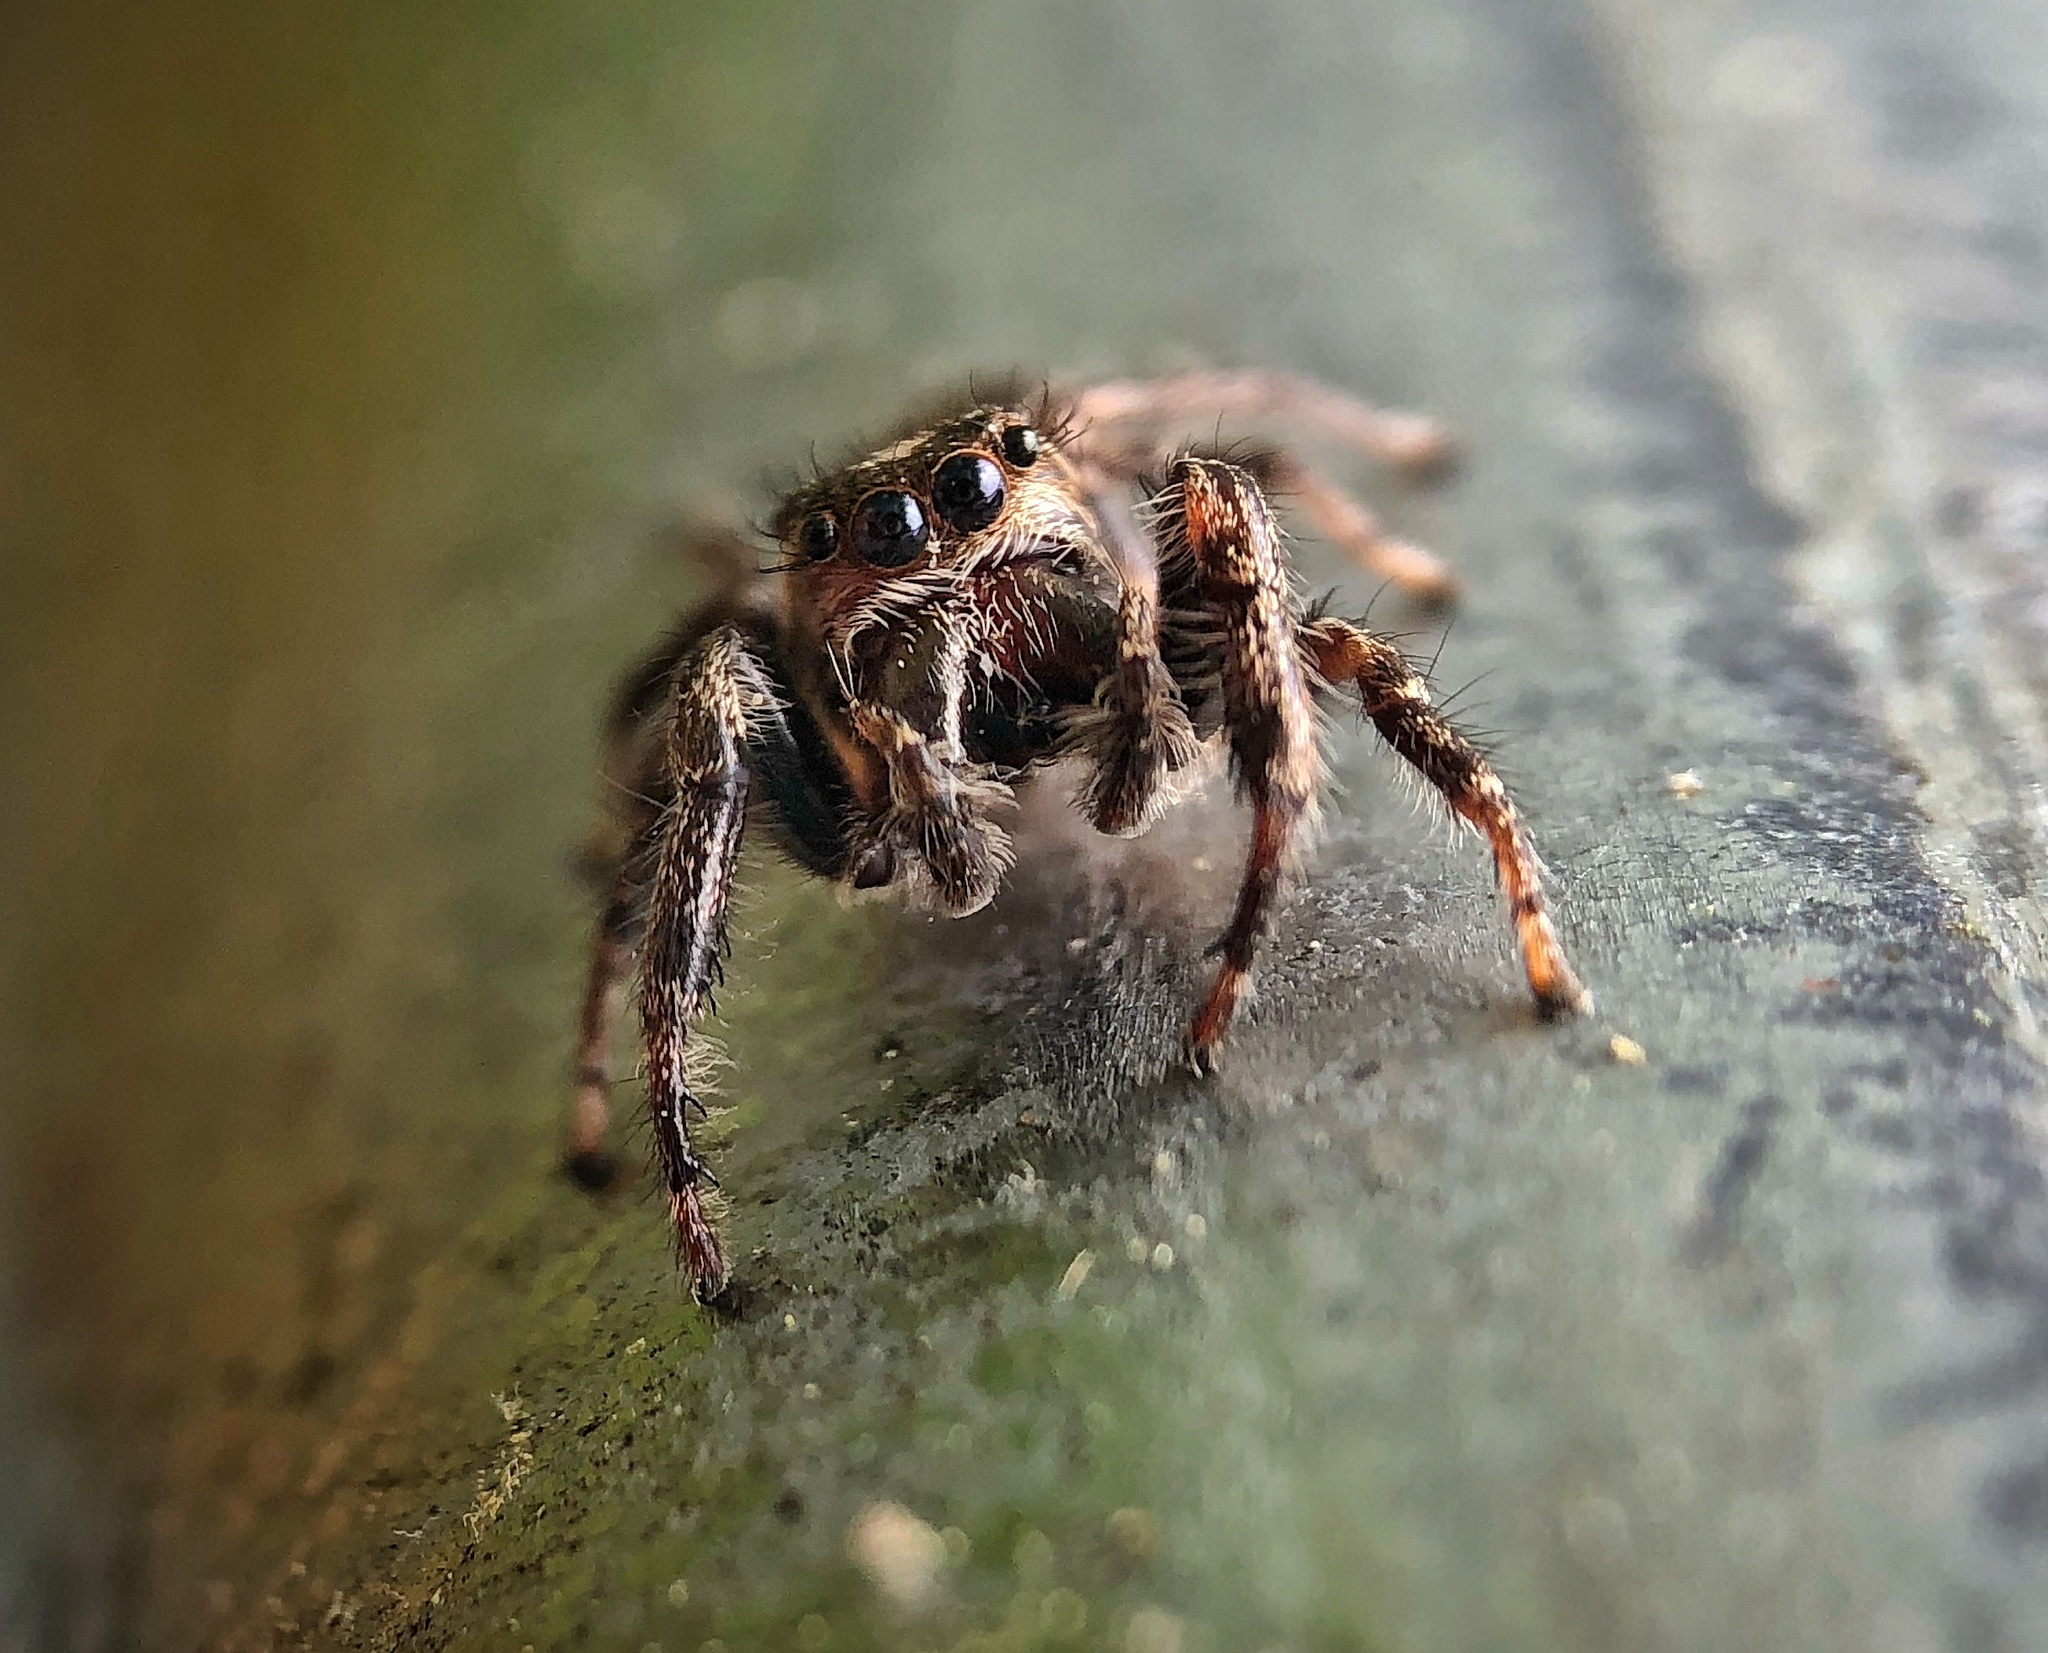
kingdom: Animalia
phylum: Arthropoda
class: Arachnida
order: Araneae
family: Salticidae
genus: Eris
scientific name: Eris militaris
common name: Bronze jumper
